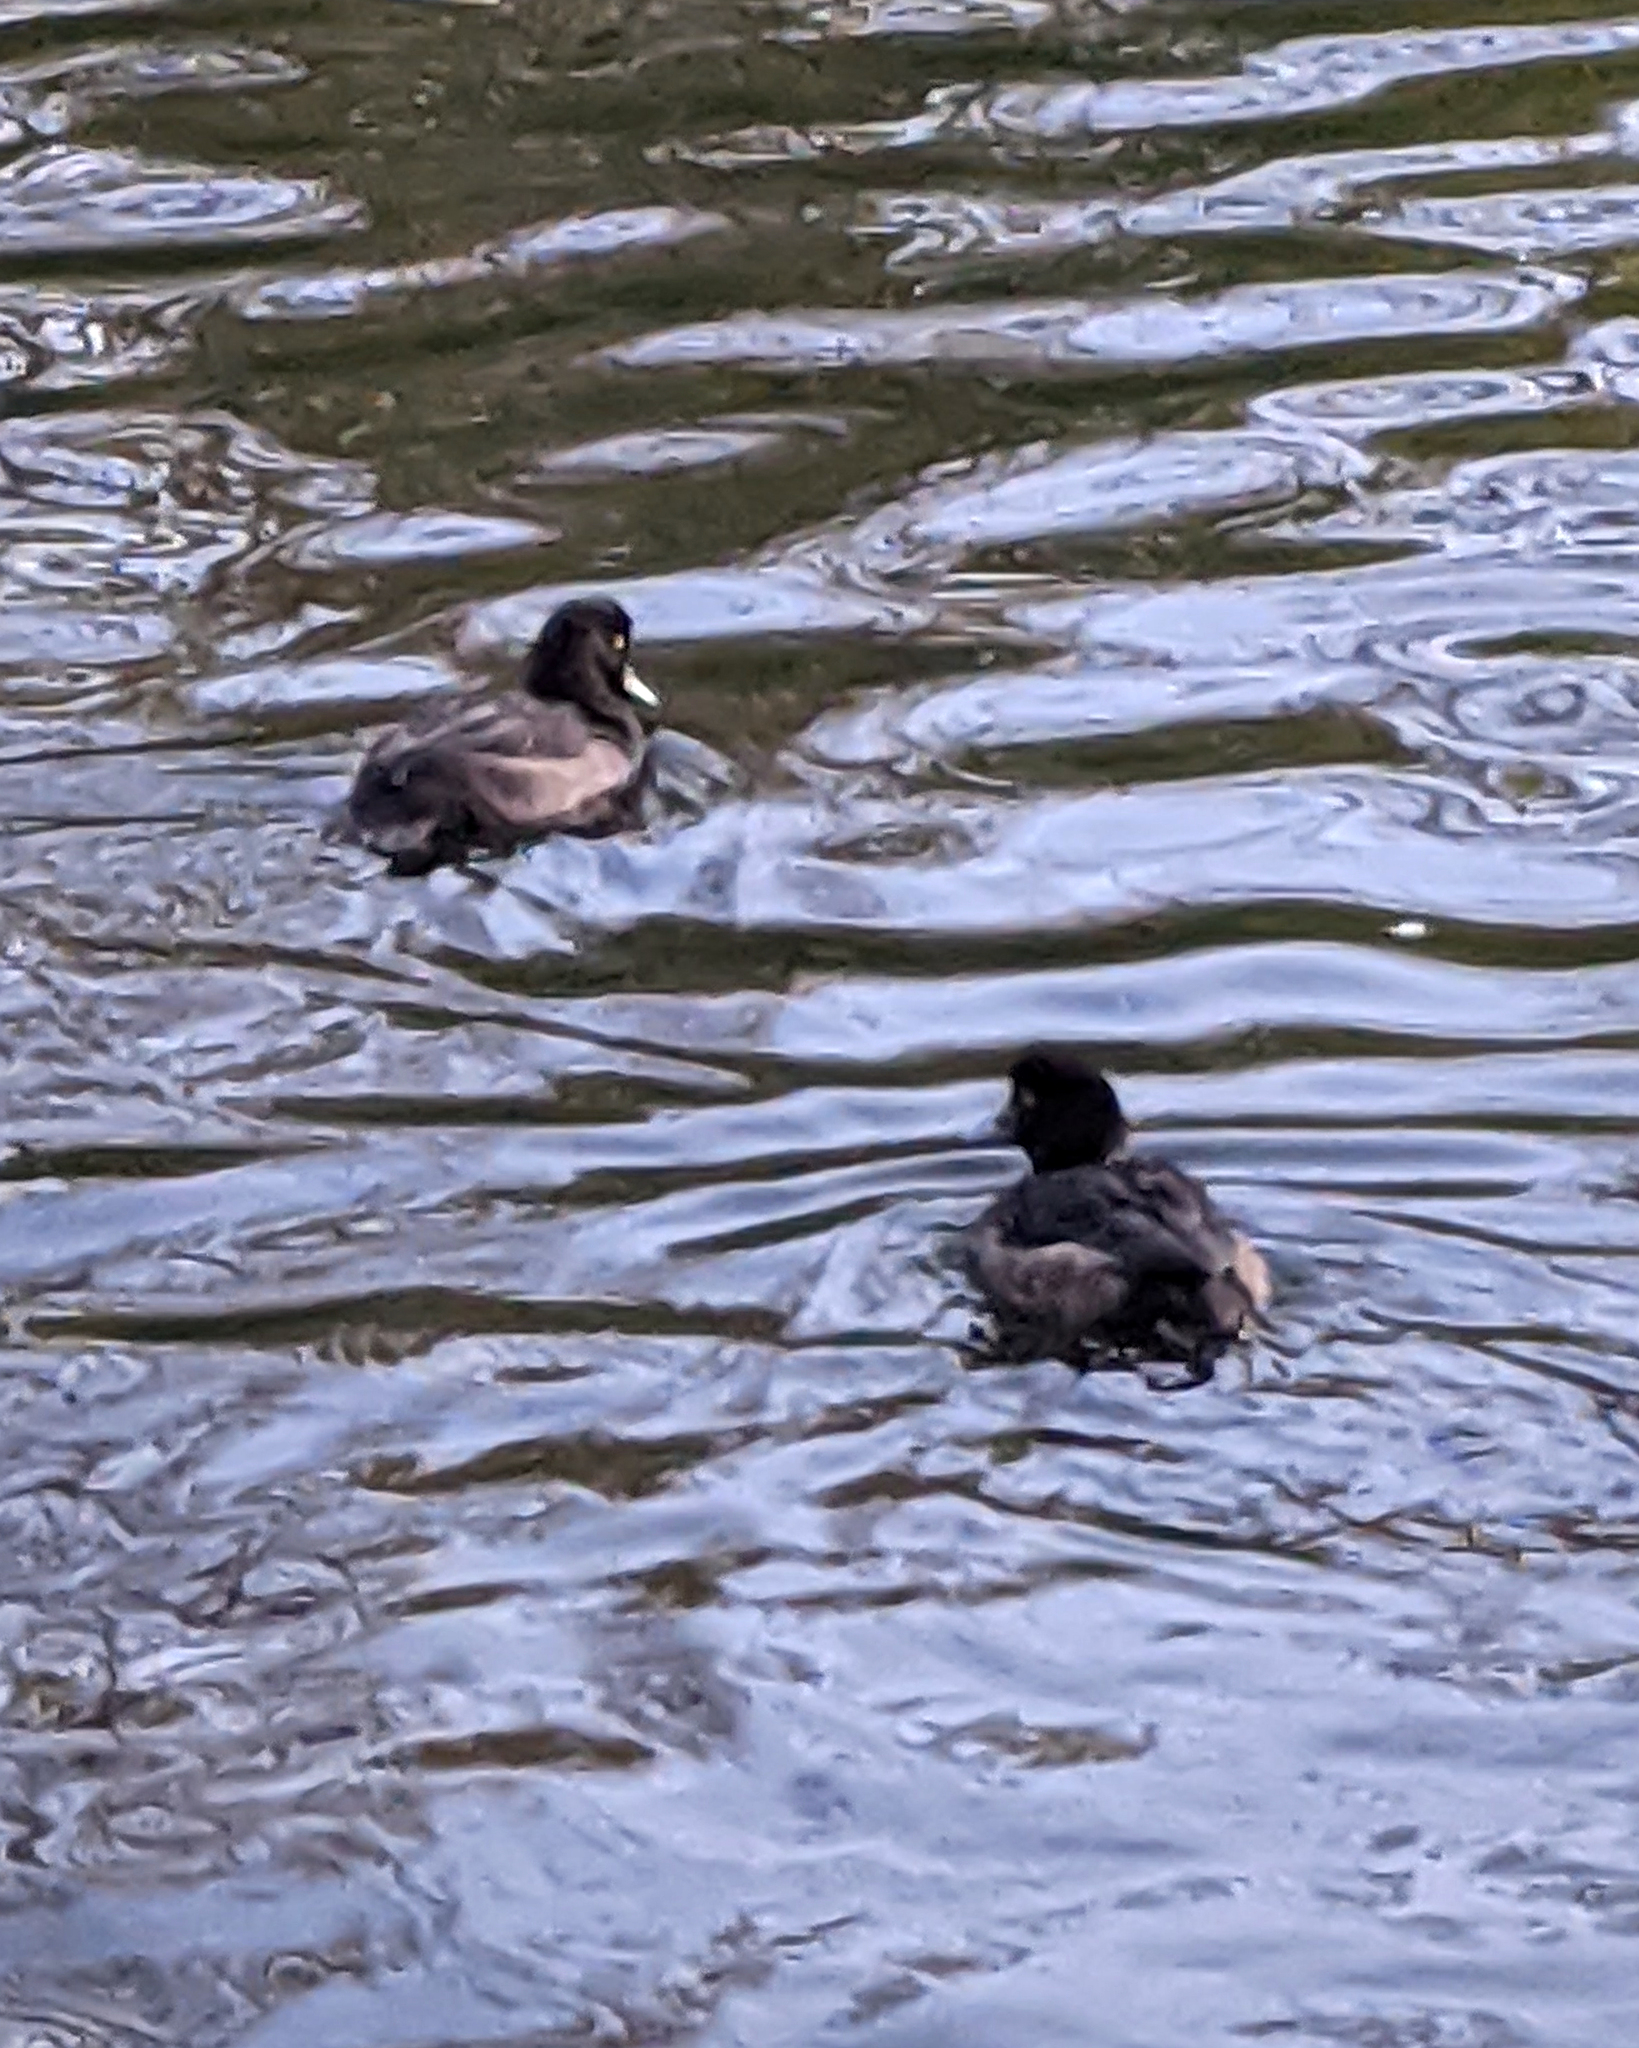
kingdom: Animalia
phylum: Chordata
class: Aves
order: Anseriformes
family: Anatidae
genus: Aythya
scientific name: Aythya fuligula
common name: Tufted duck
